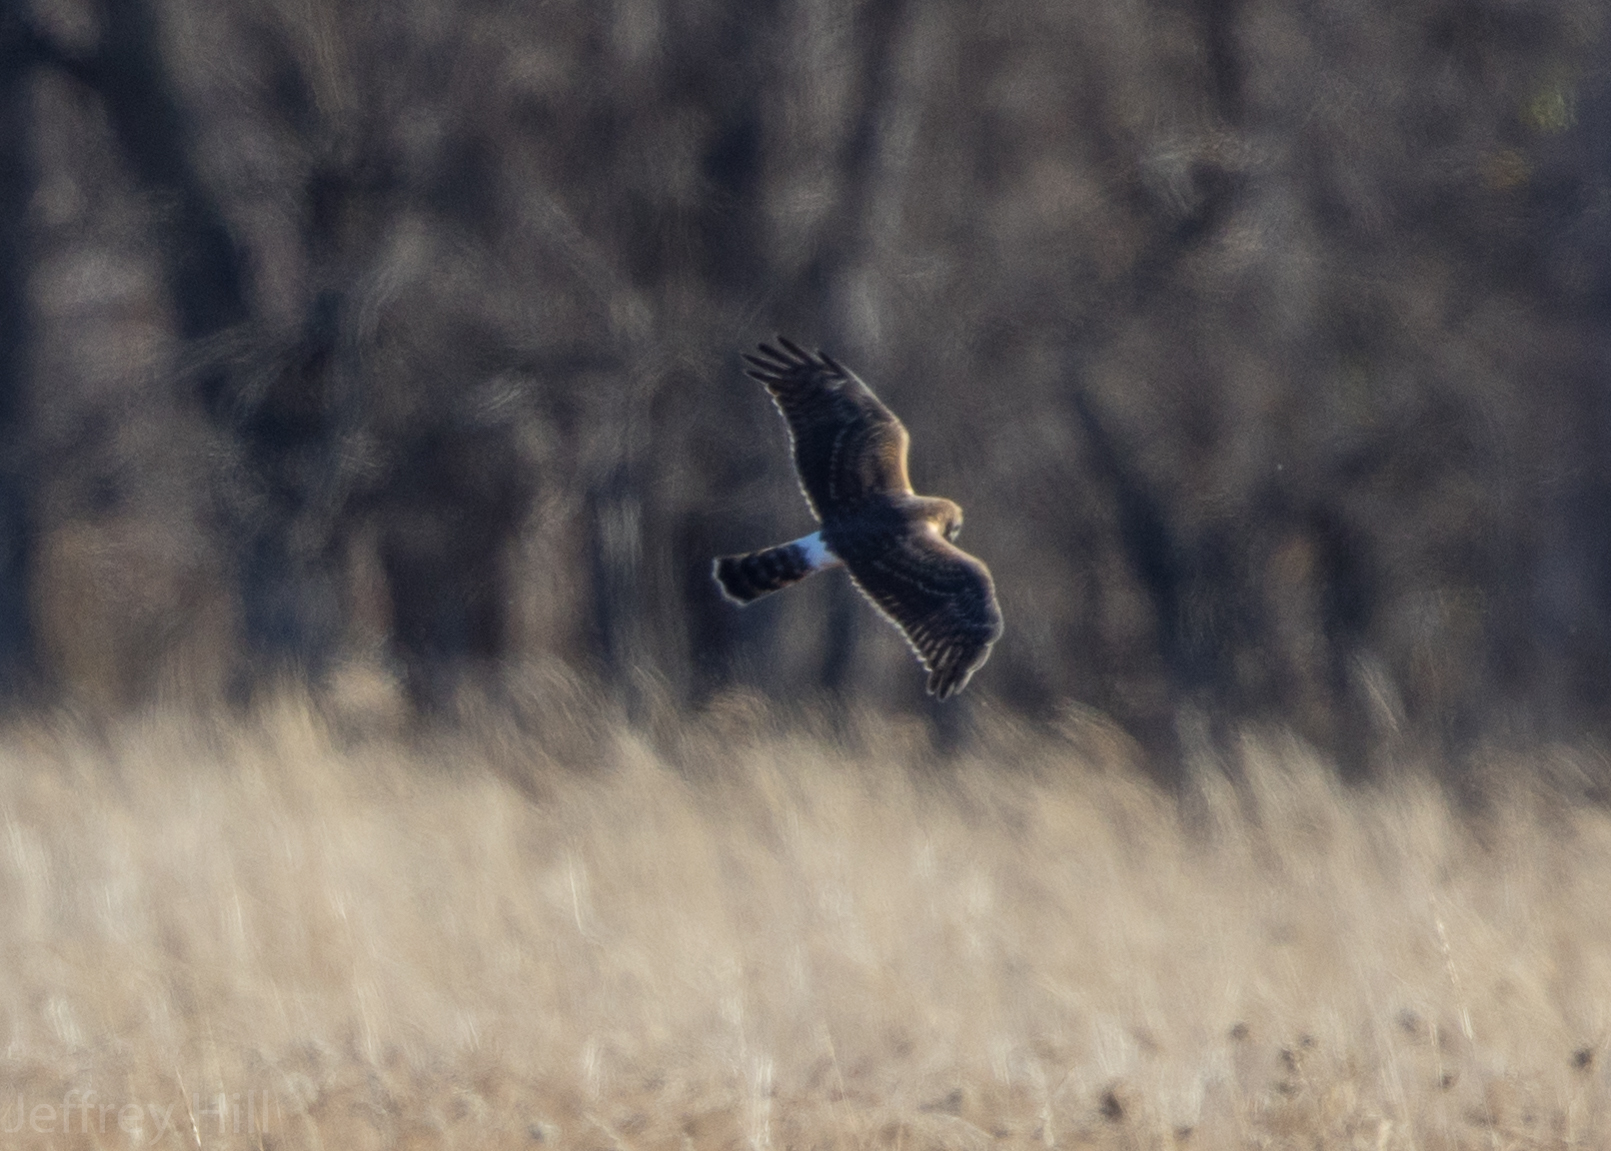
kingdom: Animalia
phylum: Chordata
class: Aves
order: Accipitriformes
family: Accipitridae
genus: Circus
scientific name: Circus cyaneus
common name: Hen harrier
